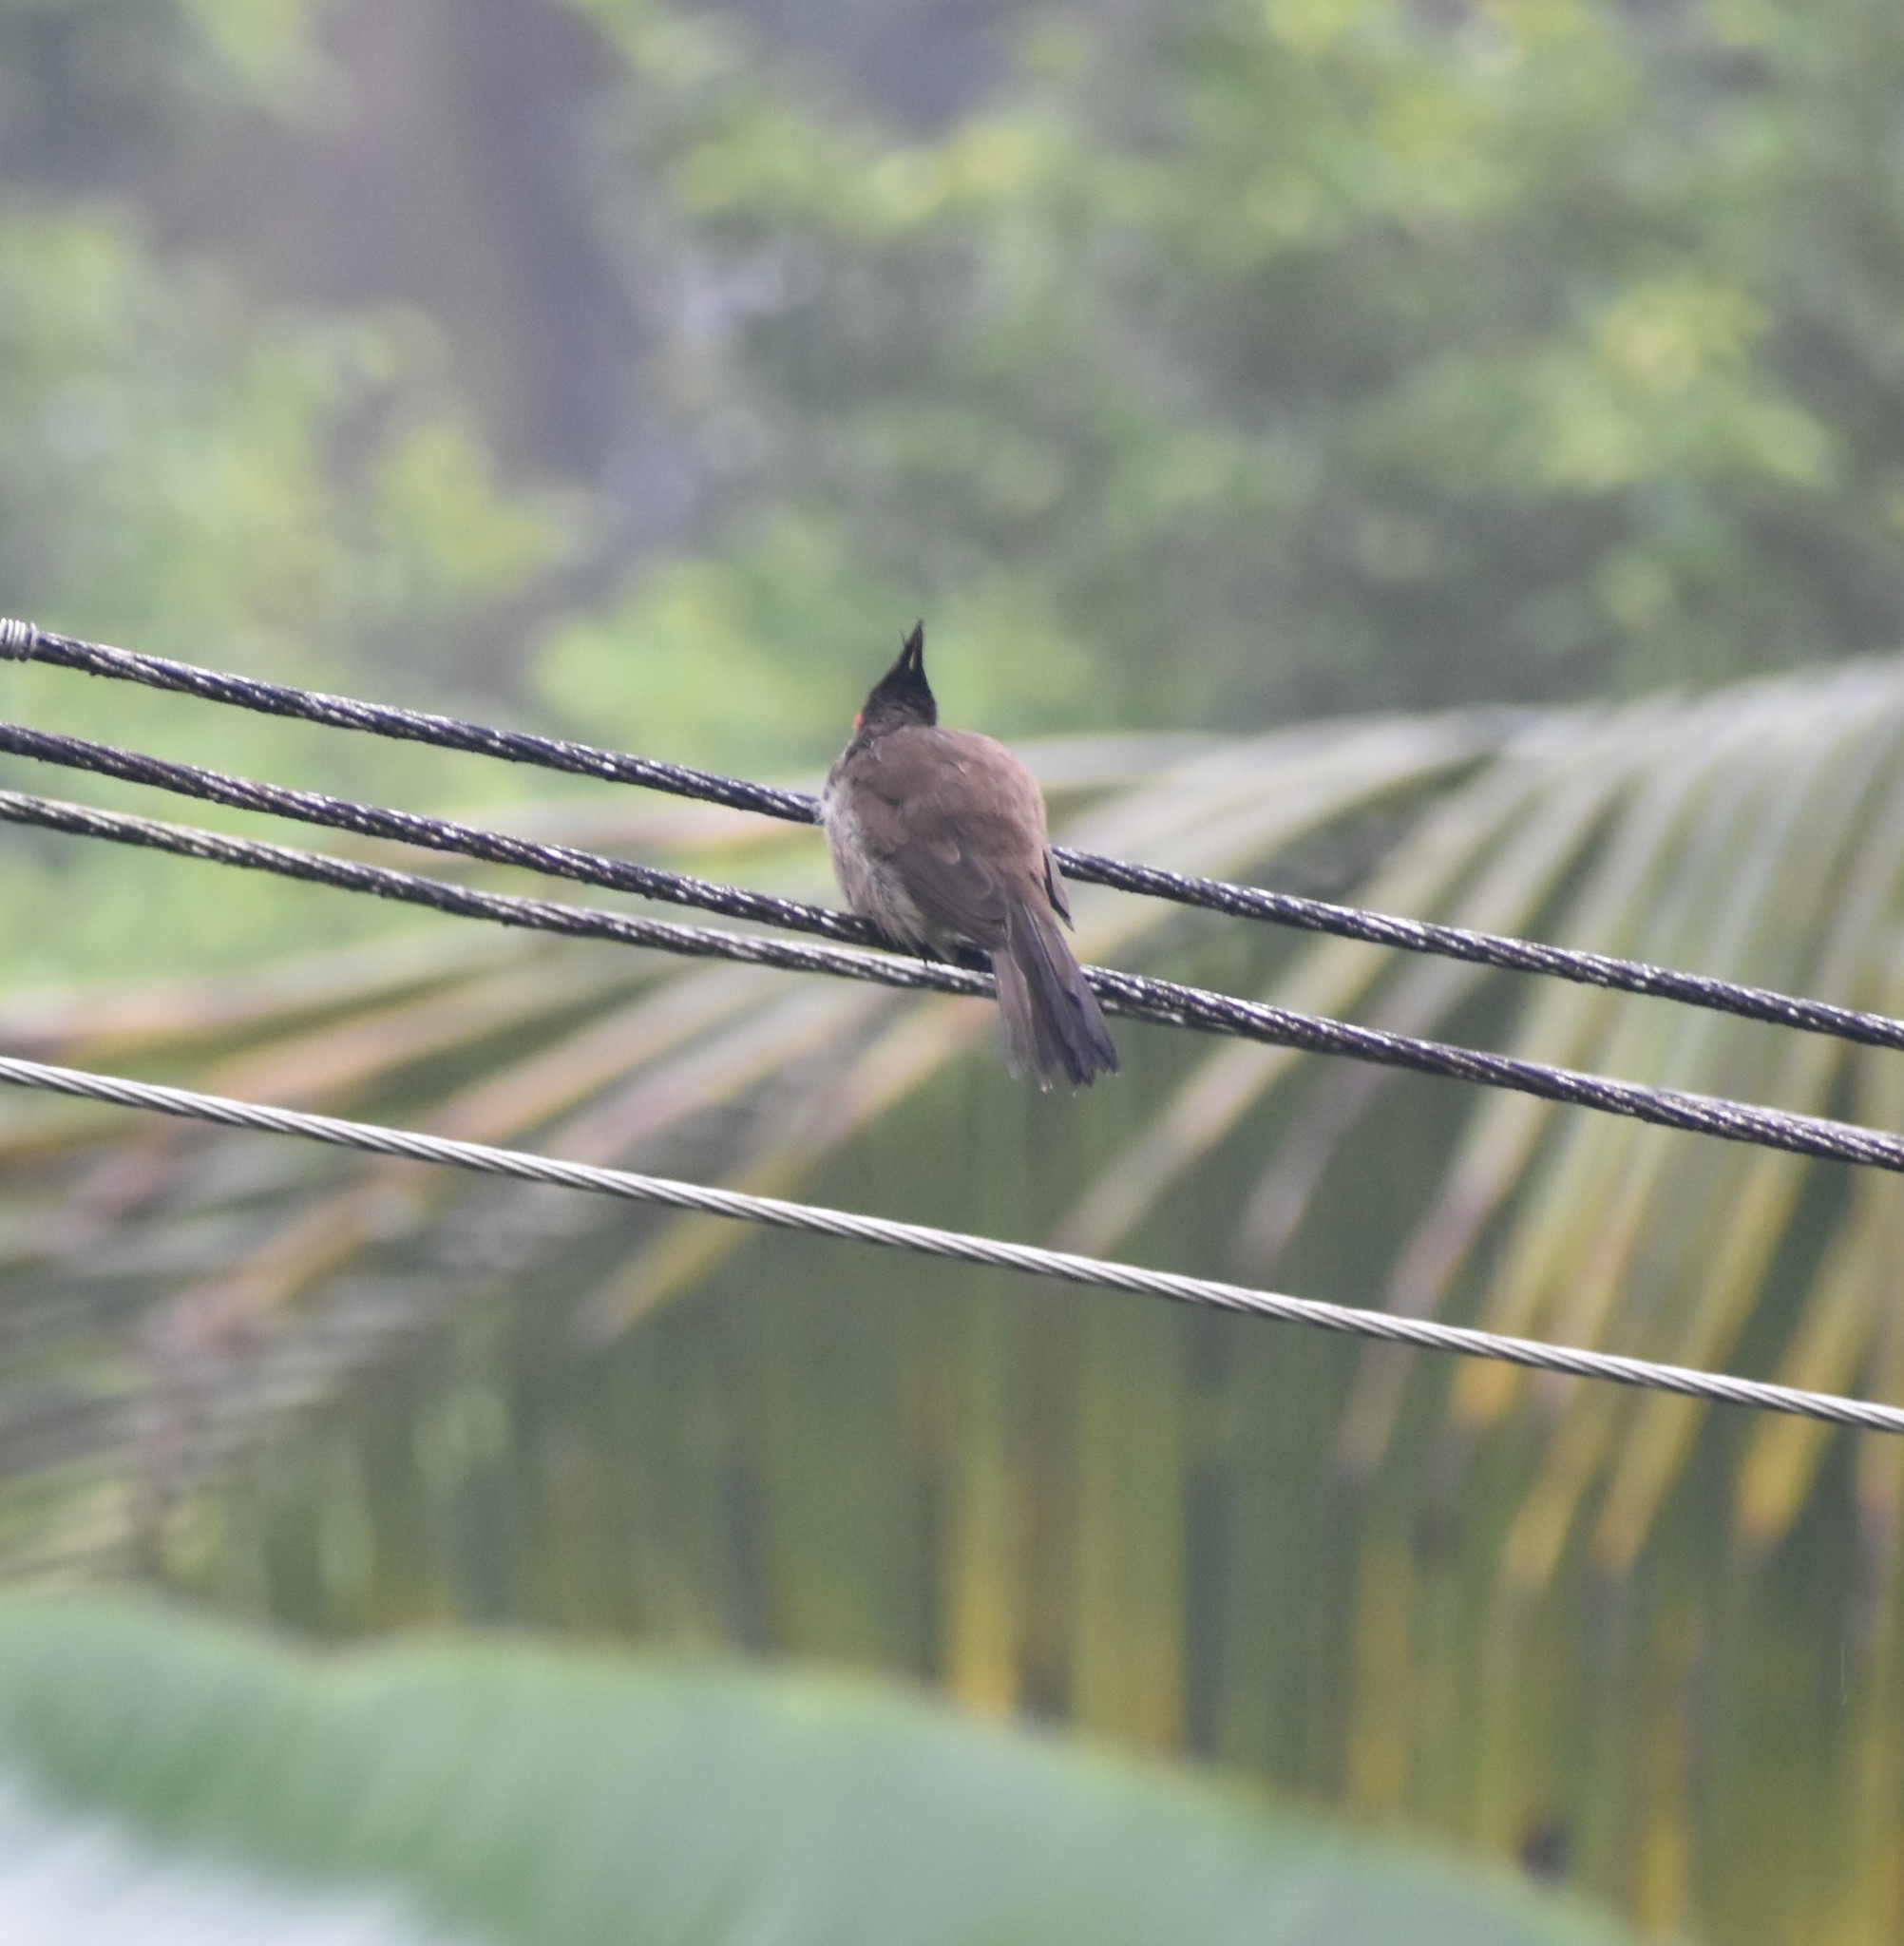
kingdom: Animalia
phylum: Chordata
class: Aves
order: Passeriformes
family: Pycnonotidae
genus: Pycnonotus
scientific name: Pycnonotus jocosus
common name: Red-whiskered bulbul
